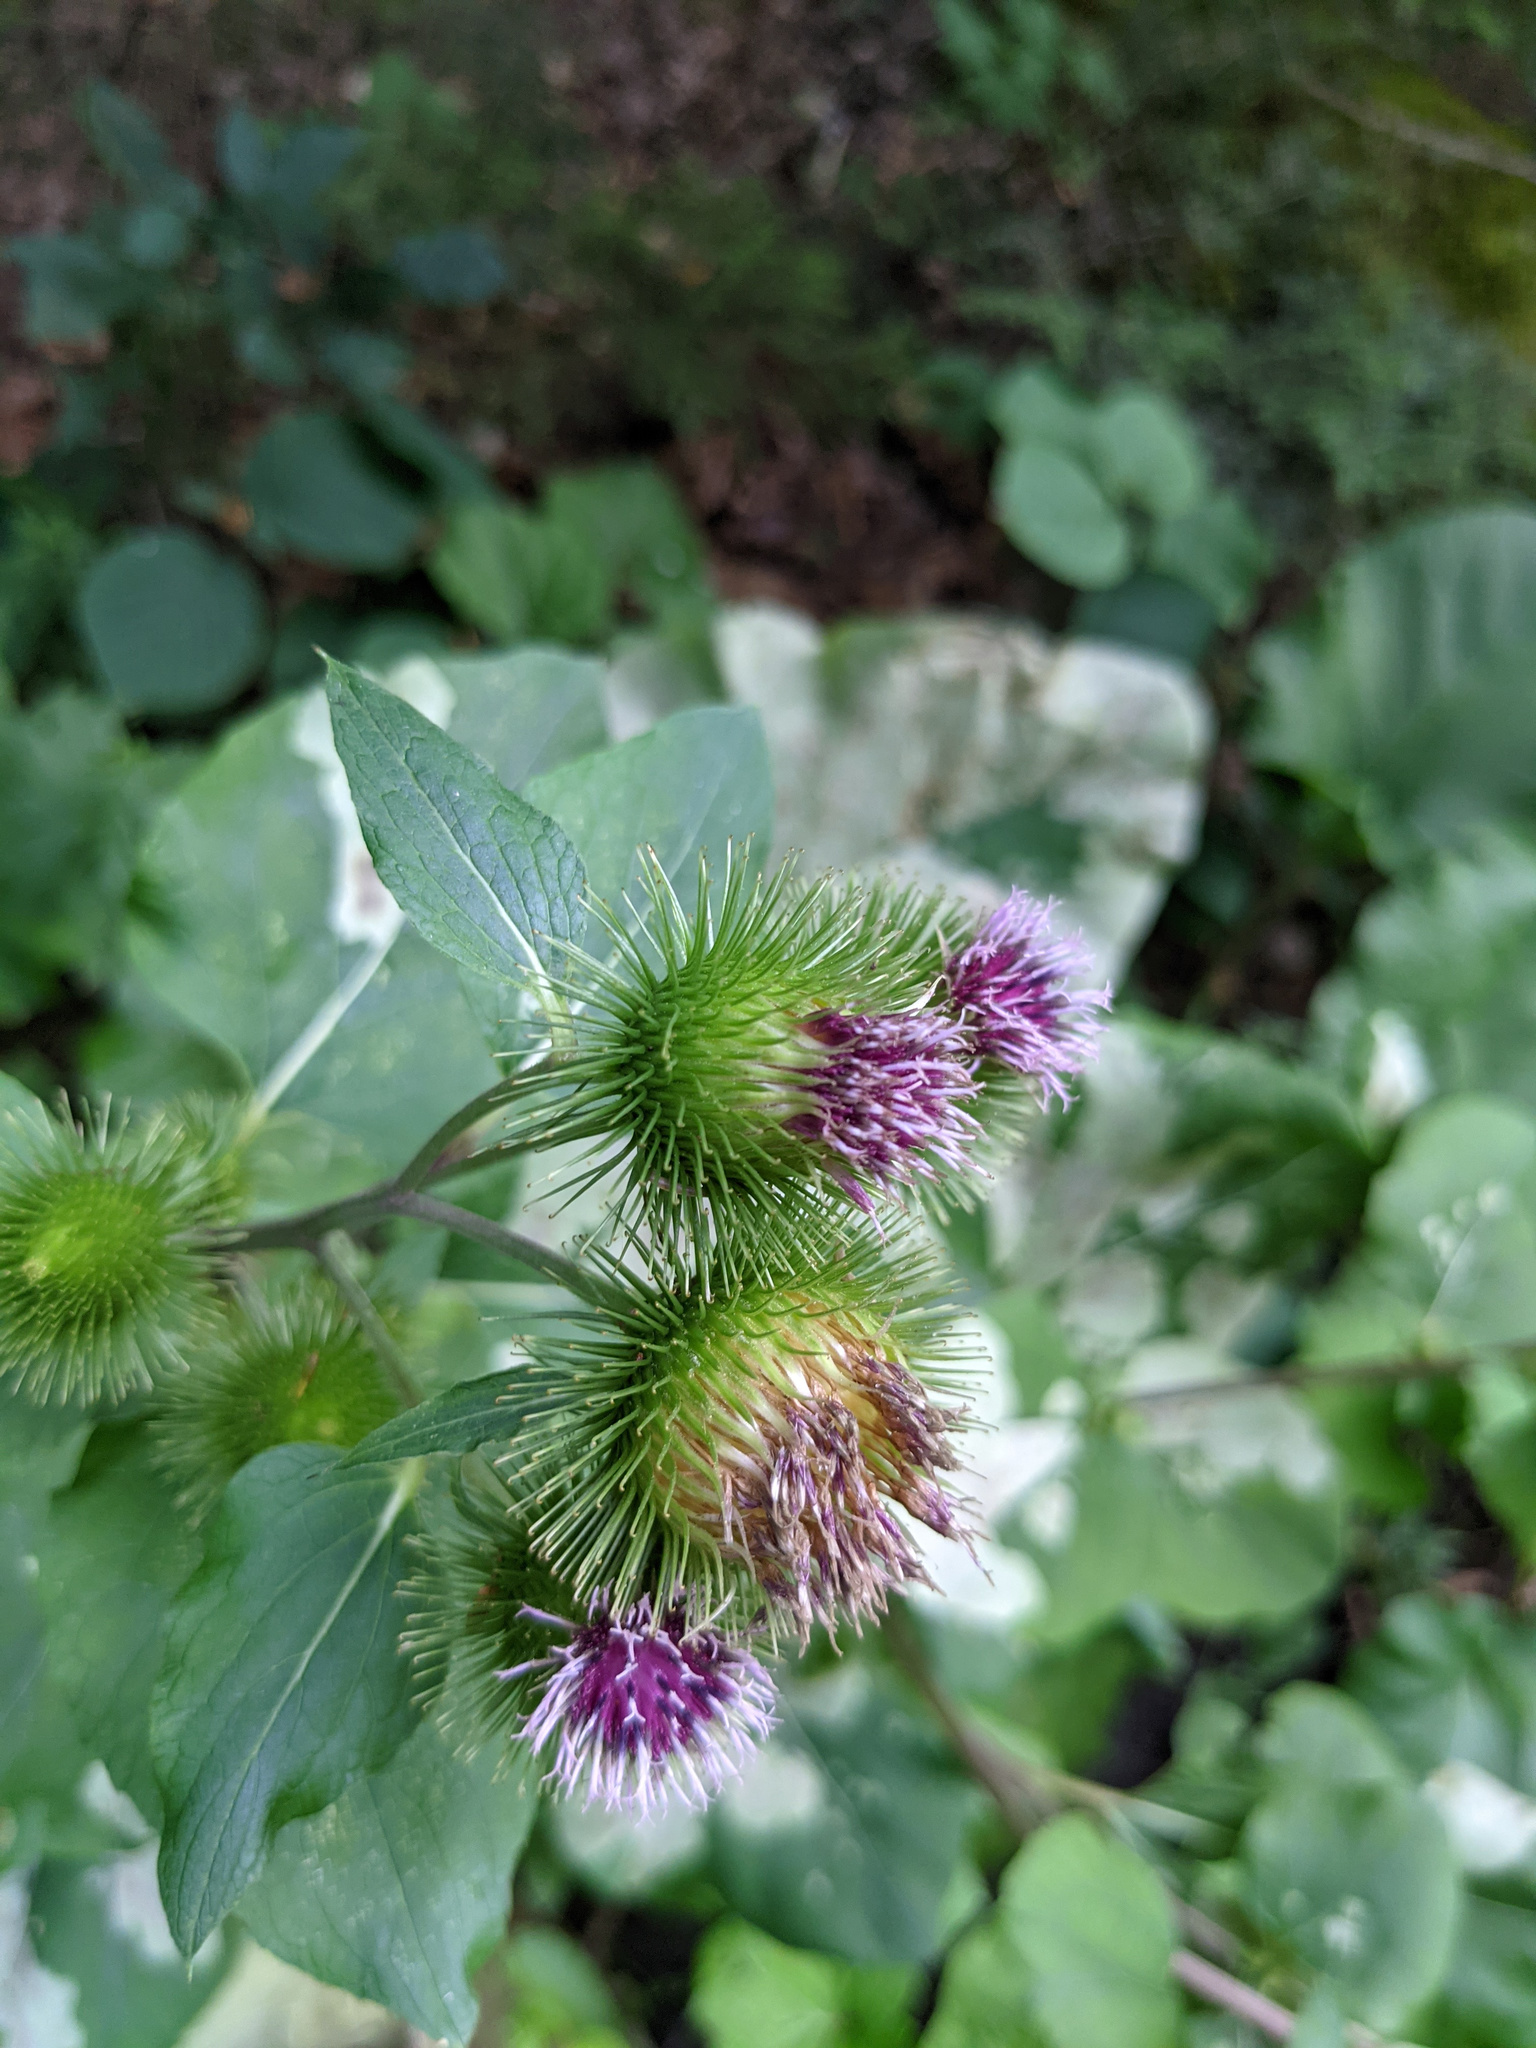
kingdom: Plantae
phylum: Tracheophyta
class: Magnoliopsida
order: Asterales
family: Asteraceae
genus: Arctium
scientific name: Arctium lappa
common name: Greater burdock
